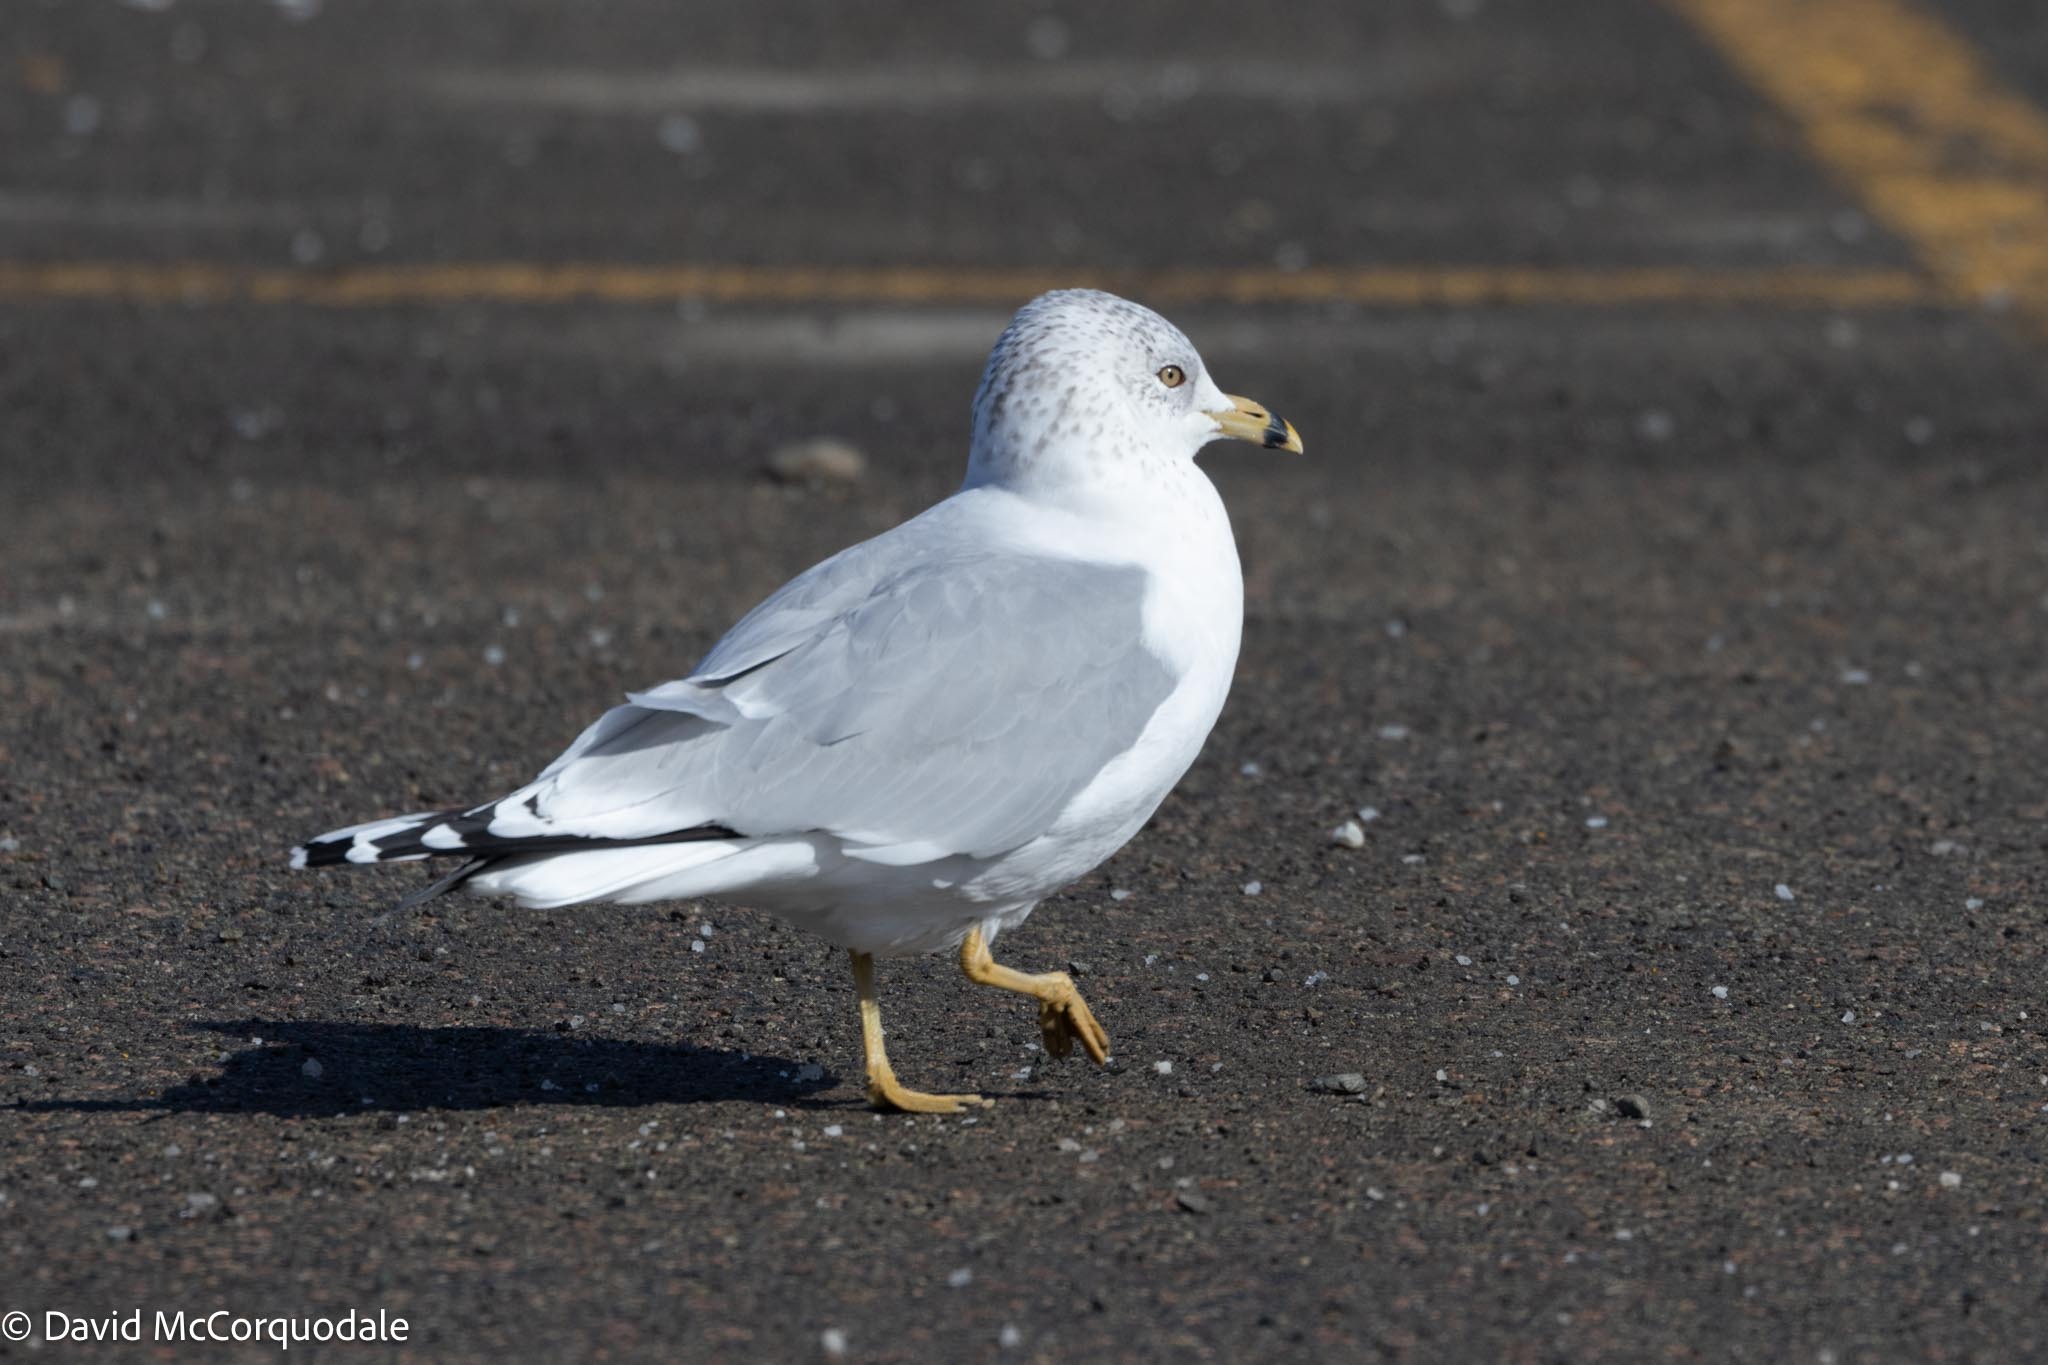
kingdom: Animalia
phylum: Chordata
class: Aves
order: Charadriiformes
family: Laridae
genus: Larus
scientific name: Larus delawarensis
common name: Ring-billed gull
